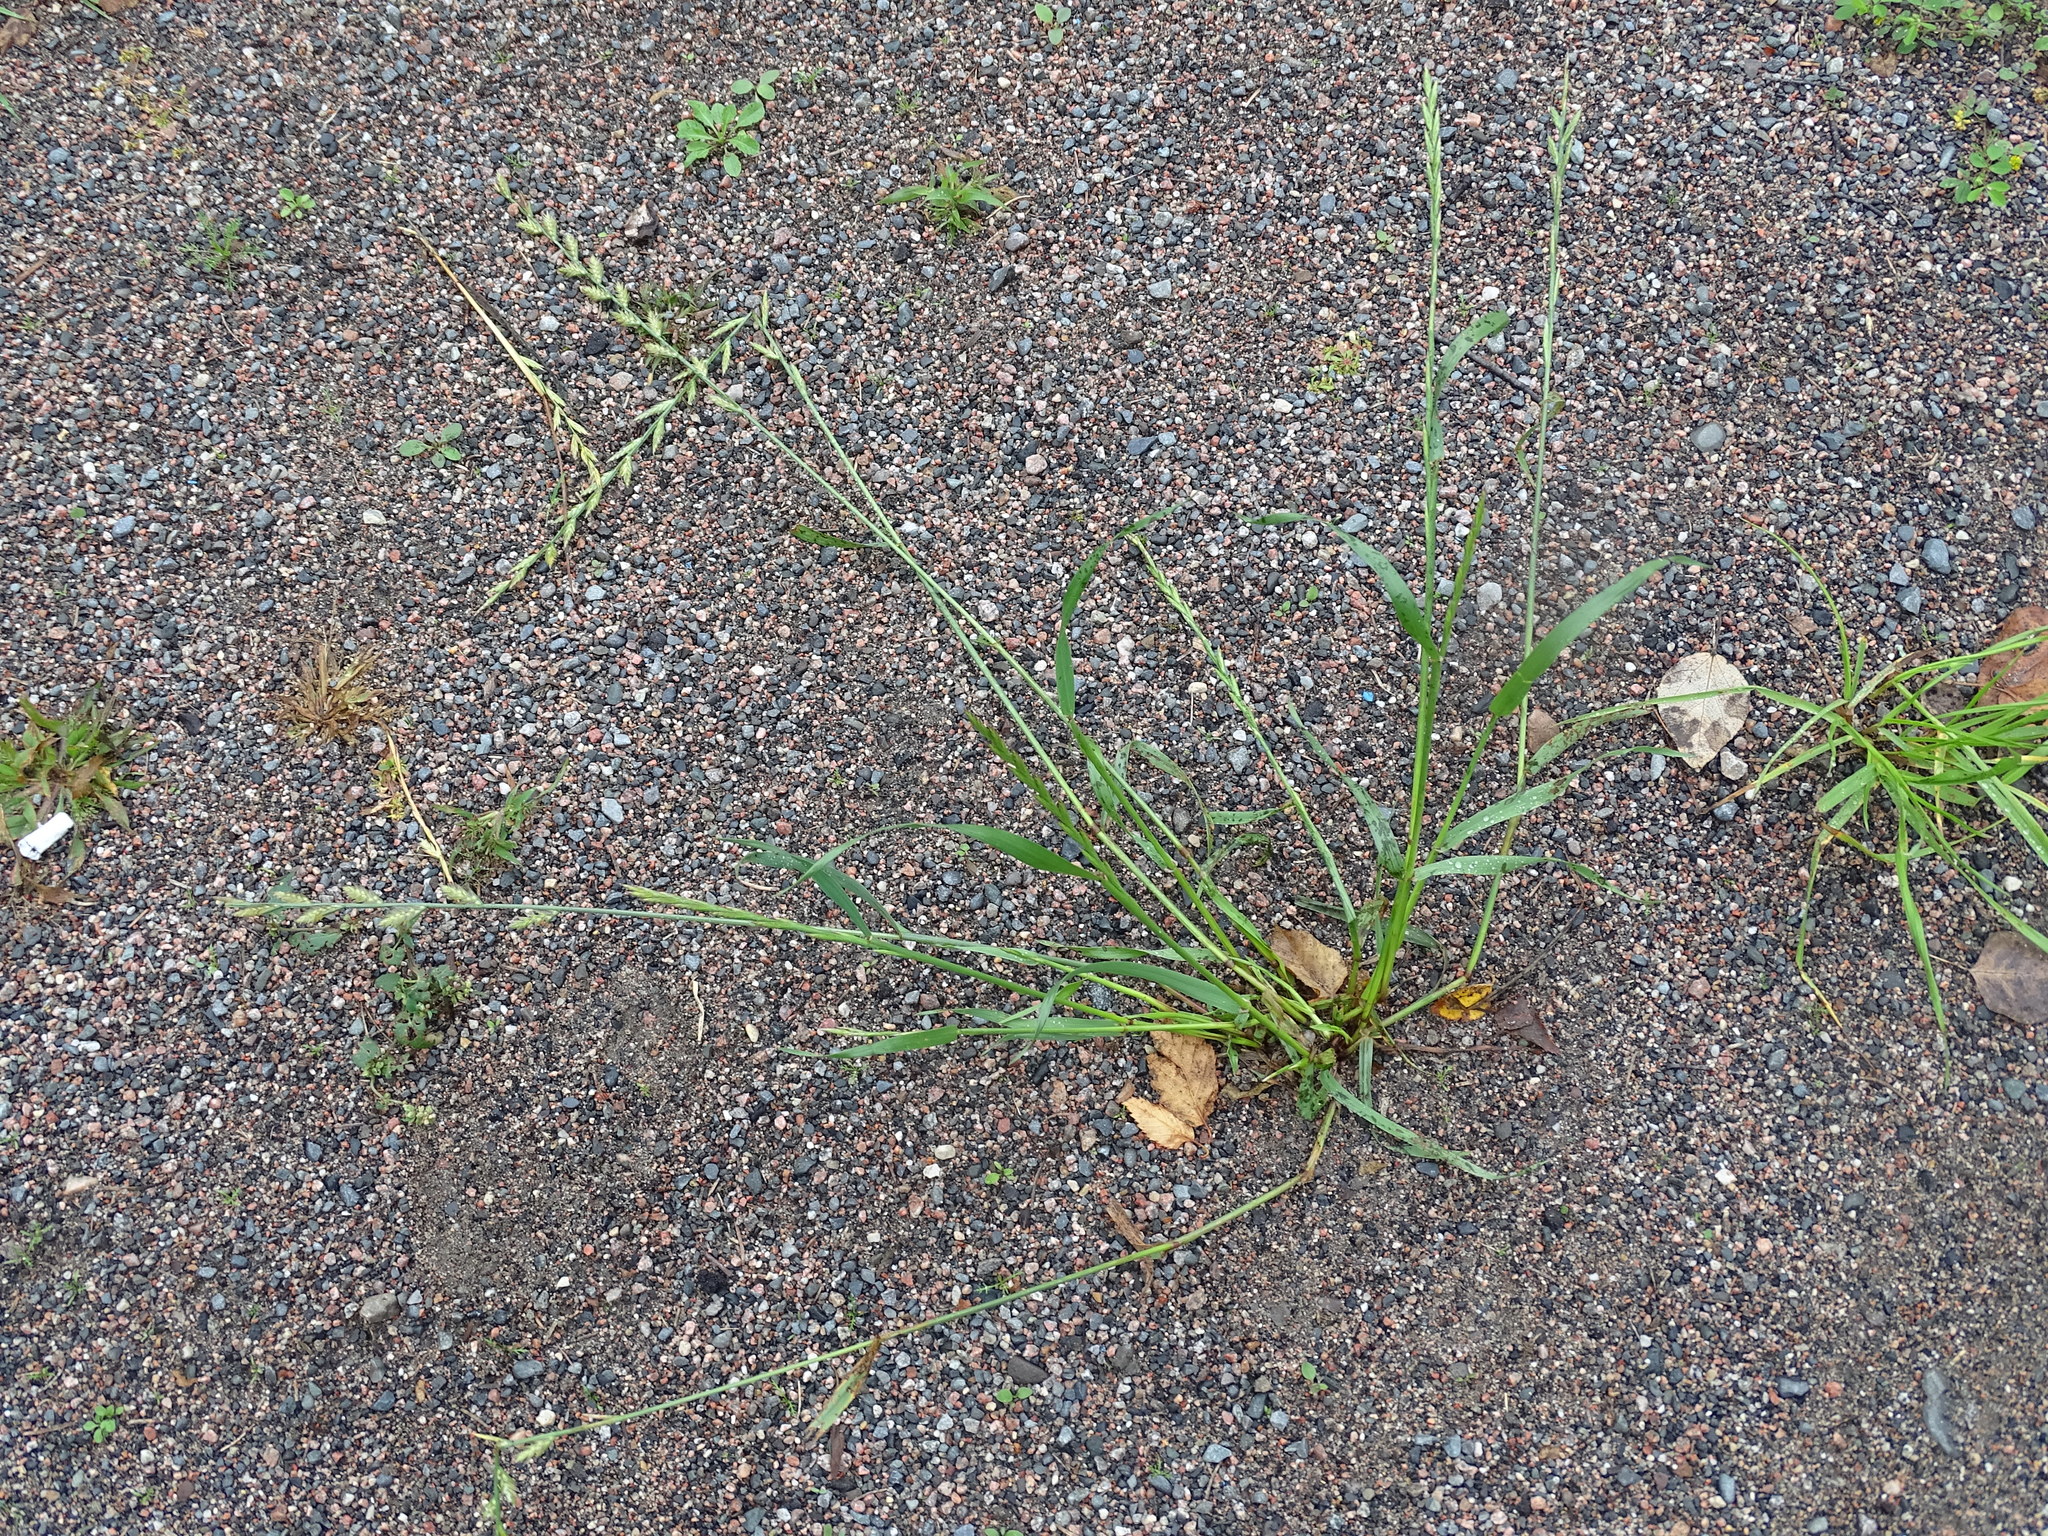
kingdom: Plantae
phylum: Tracheophyta
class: Liliopsida
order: Poales
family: Poaceae
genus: Lolium
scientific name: Lolium perenne
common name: Perennial ryegrass
